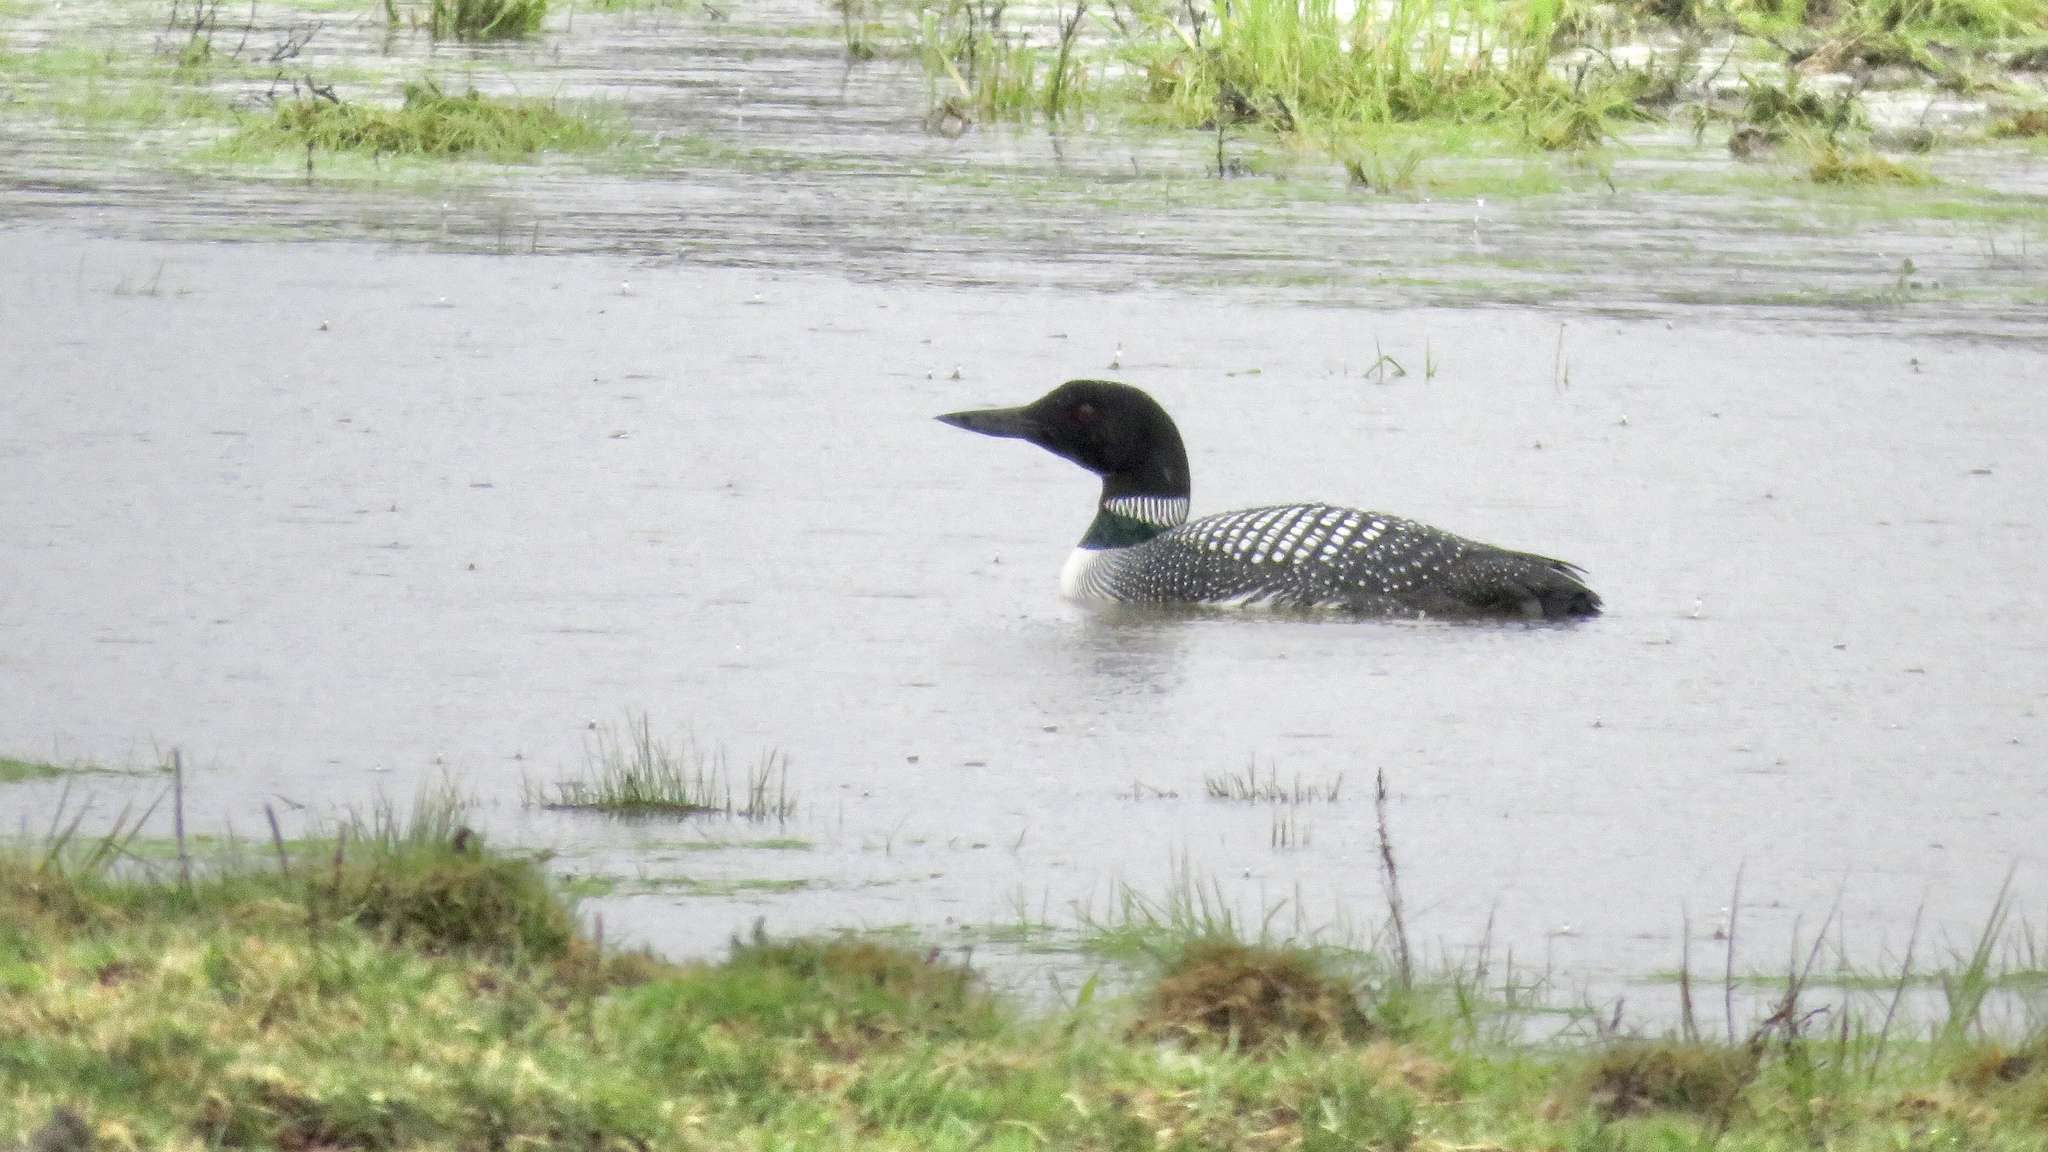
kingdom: Animalia
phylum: Chordata
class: Aves
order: Gaviiformes
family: Gaviidae
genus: Gavia
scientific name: Gavia immer
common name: Common loon
